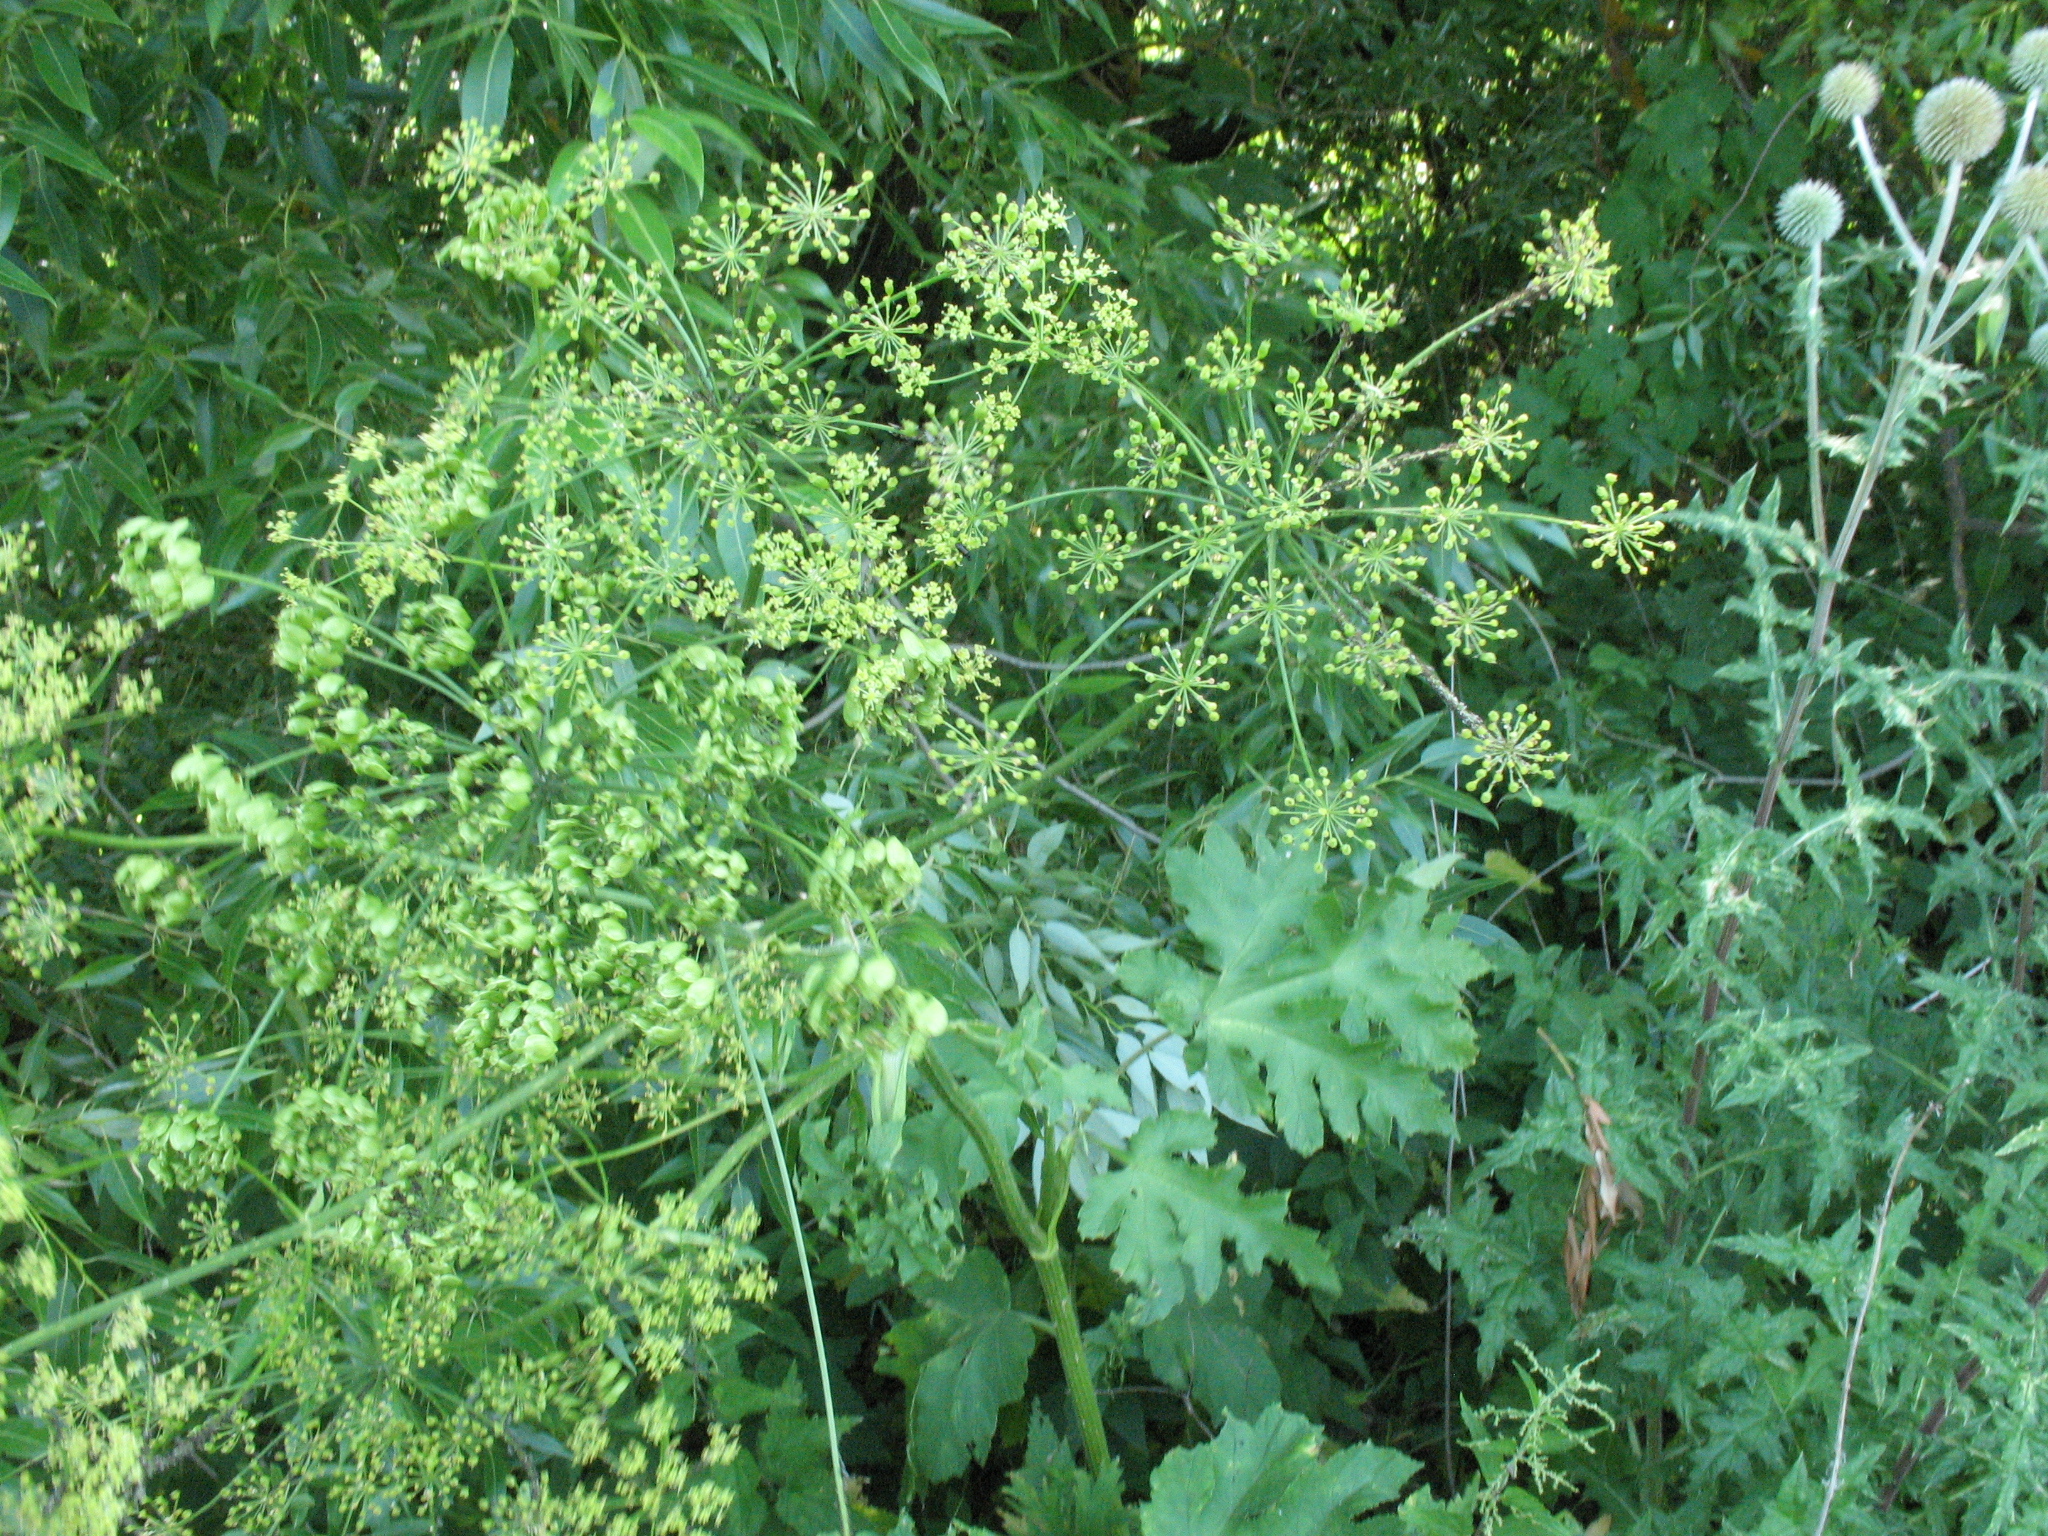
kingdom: Plantae
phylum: Tracheophyta
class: Magnoliopsida
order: Apiales
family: Apiaceae
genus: Heracleum
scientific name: Heracleum sphondylium
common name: Hogweed
